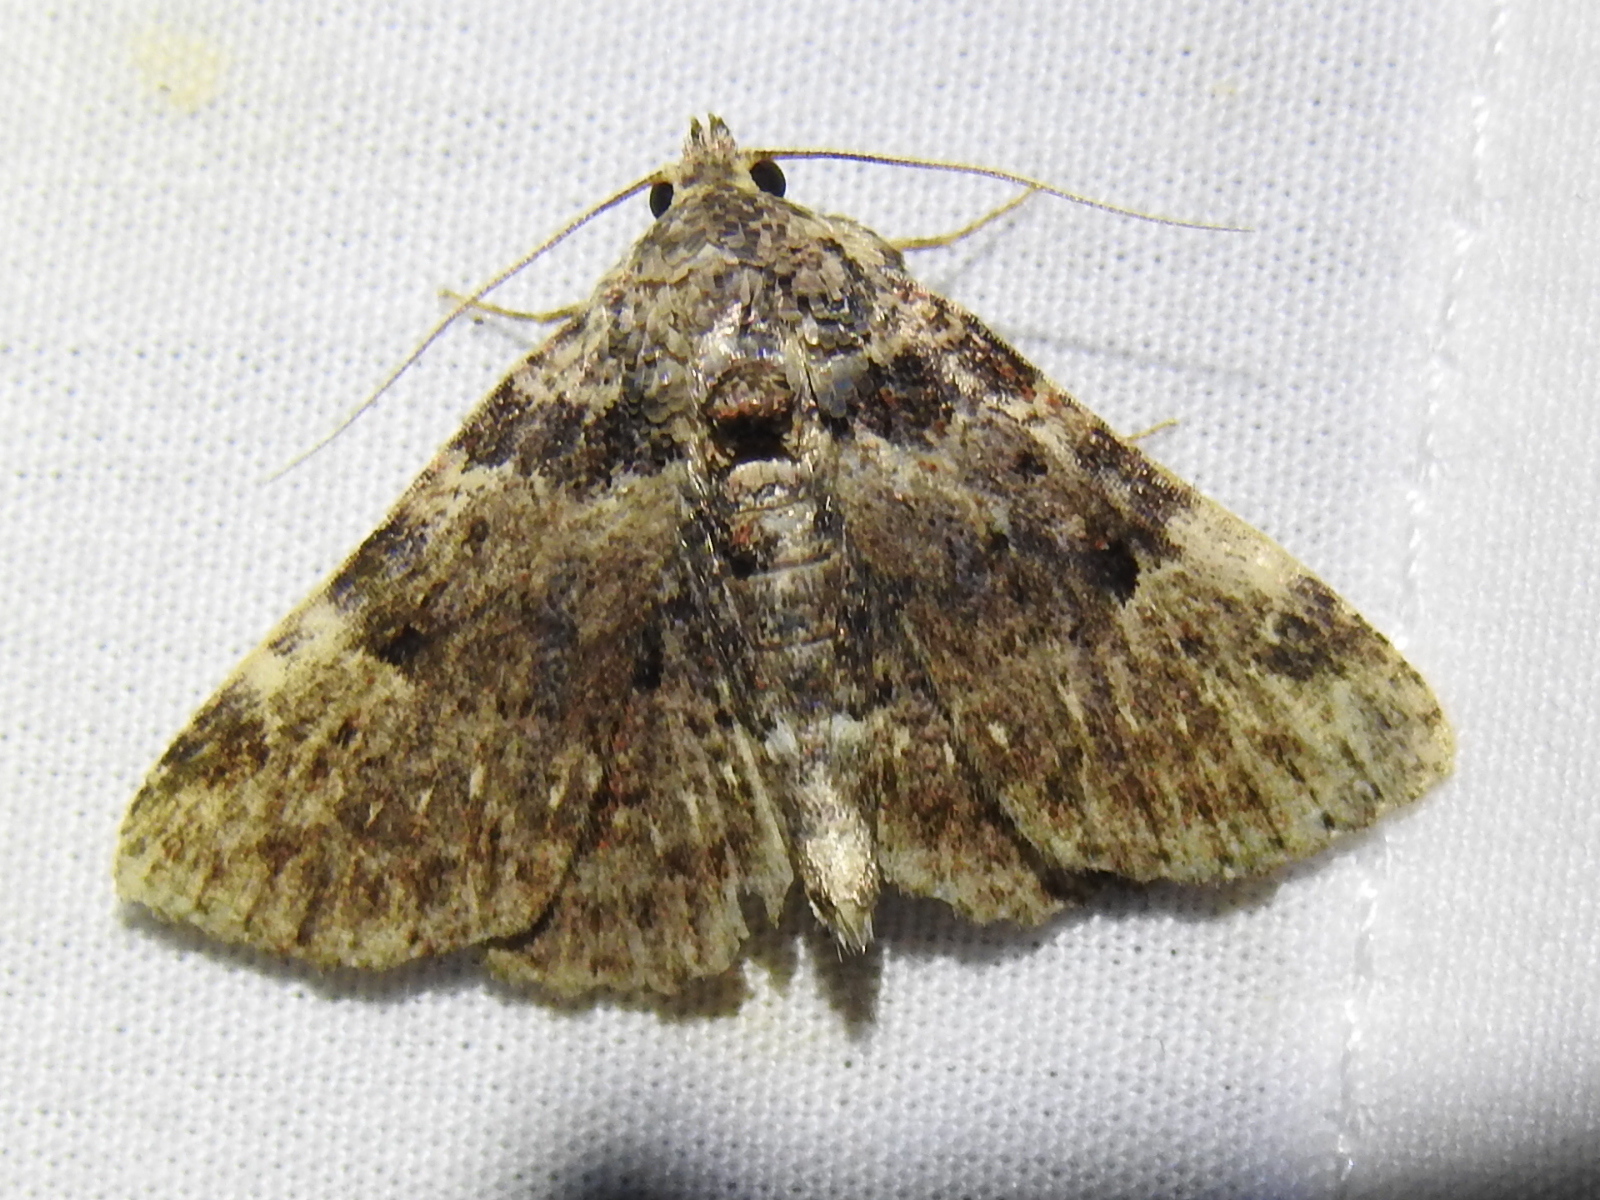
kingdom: Animalia
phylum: Arthropoda
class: Insecta
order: Lepidoptera
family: Erebidae
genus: Metalectra
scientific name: Metalectra discalis
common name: Common fungus moth
